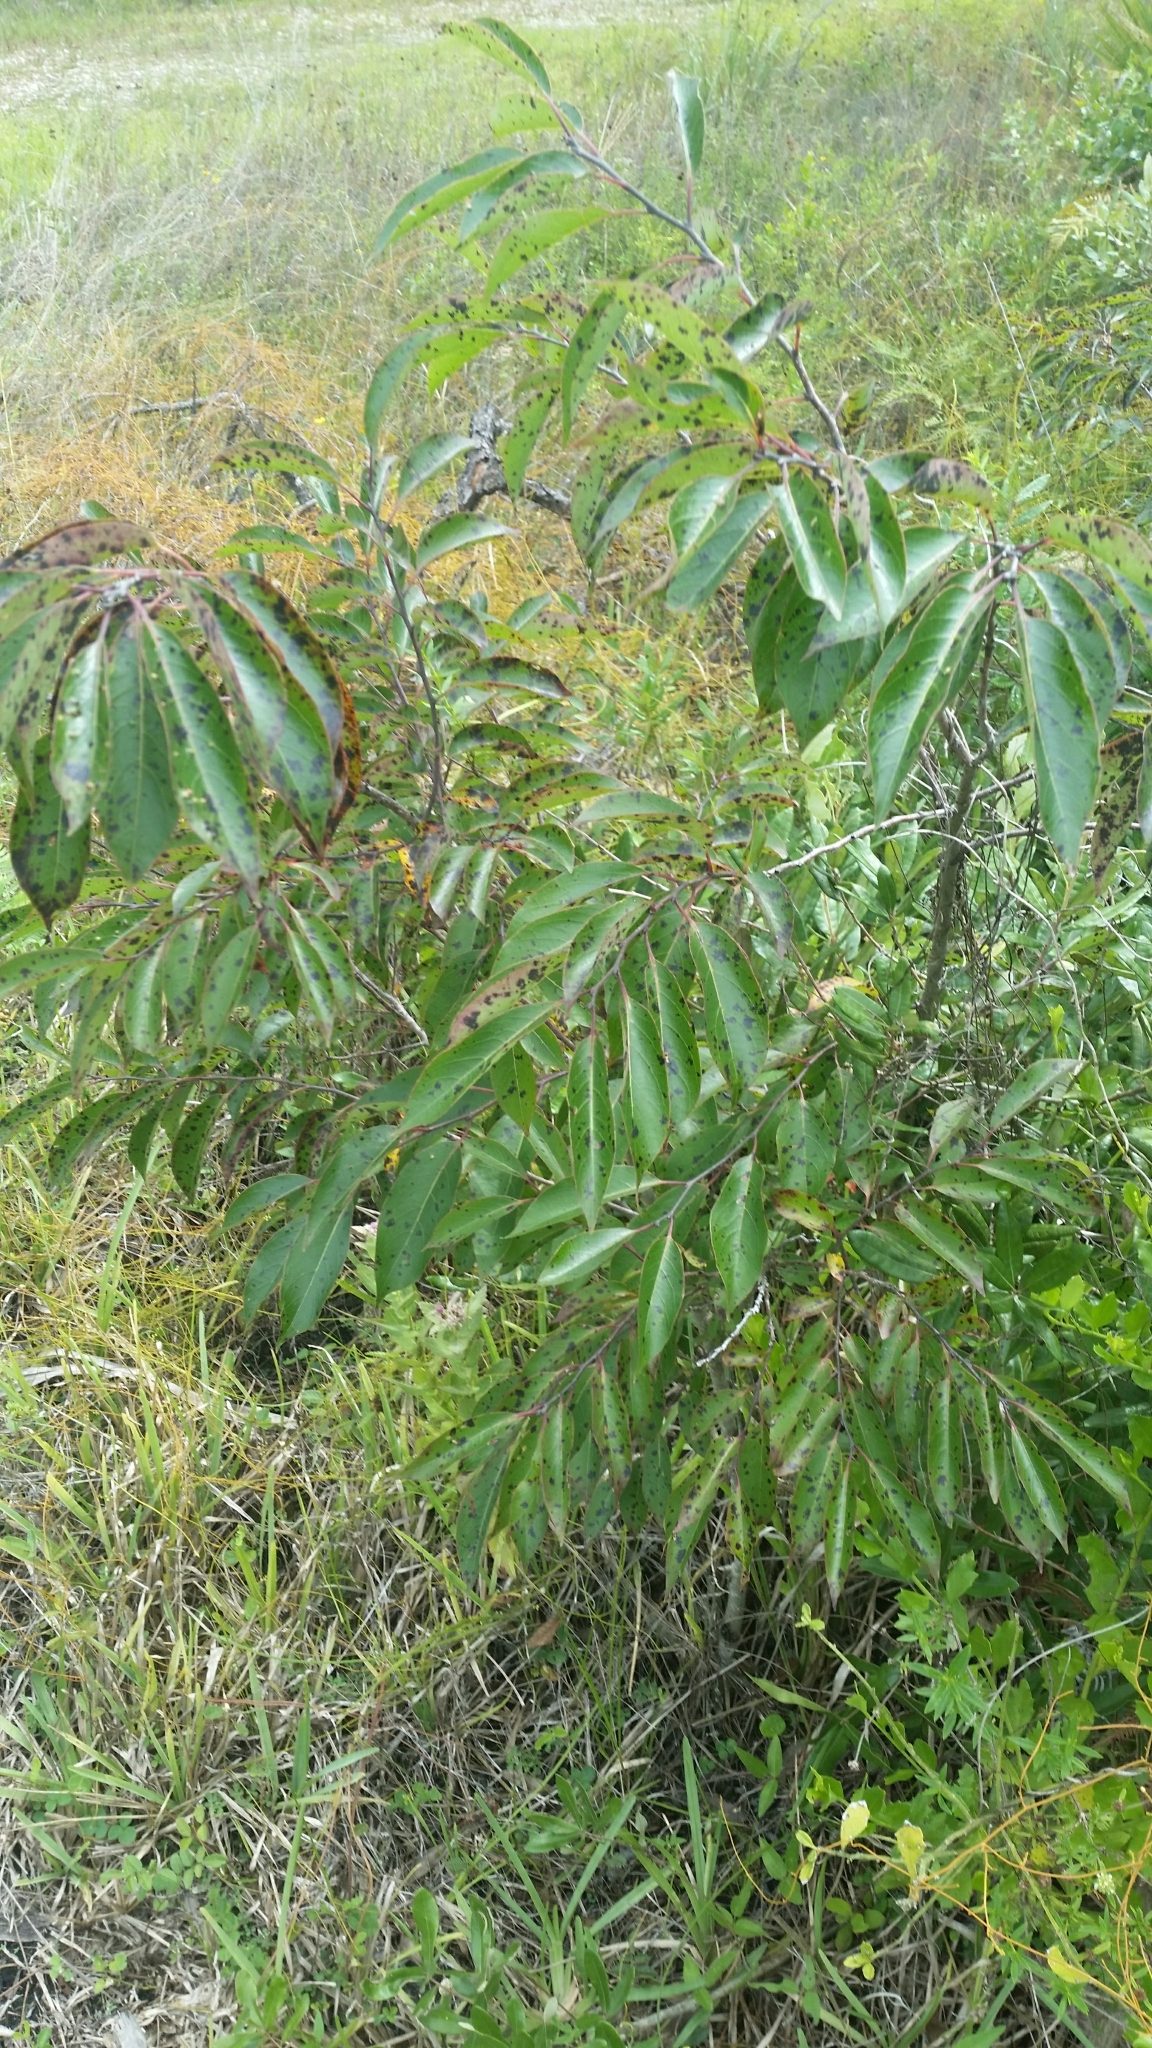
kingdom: Plantae
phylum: Tracheophyta
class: Magnoliopsida
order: Ericales
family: Ebenaceae
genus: Diospyros
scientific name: Diospyros virginiana
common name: Persimmon
